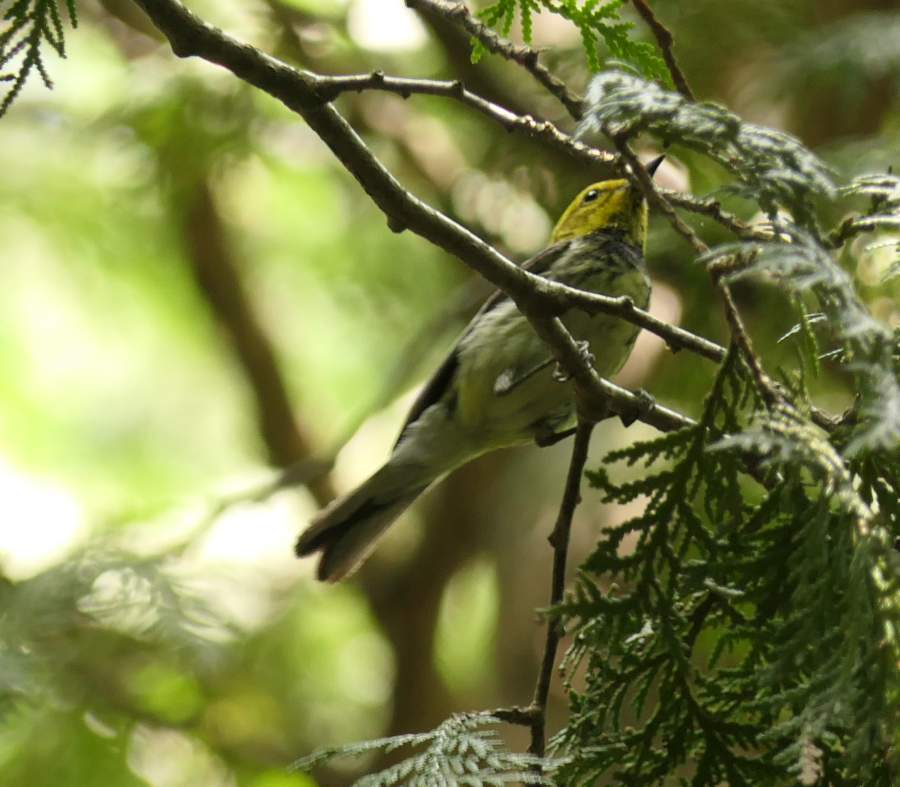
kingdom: Animalia
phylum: Chordata
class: Aves
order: Passeriformes
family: Parulidae
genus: Setophaga
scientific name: Setophaga virens
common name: Black-throated green warbler
